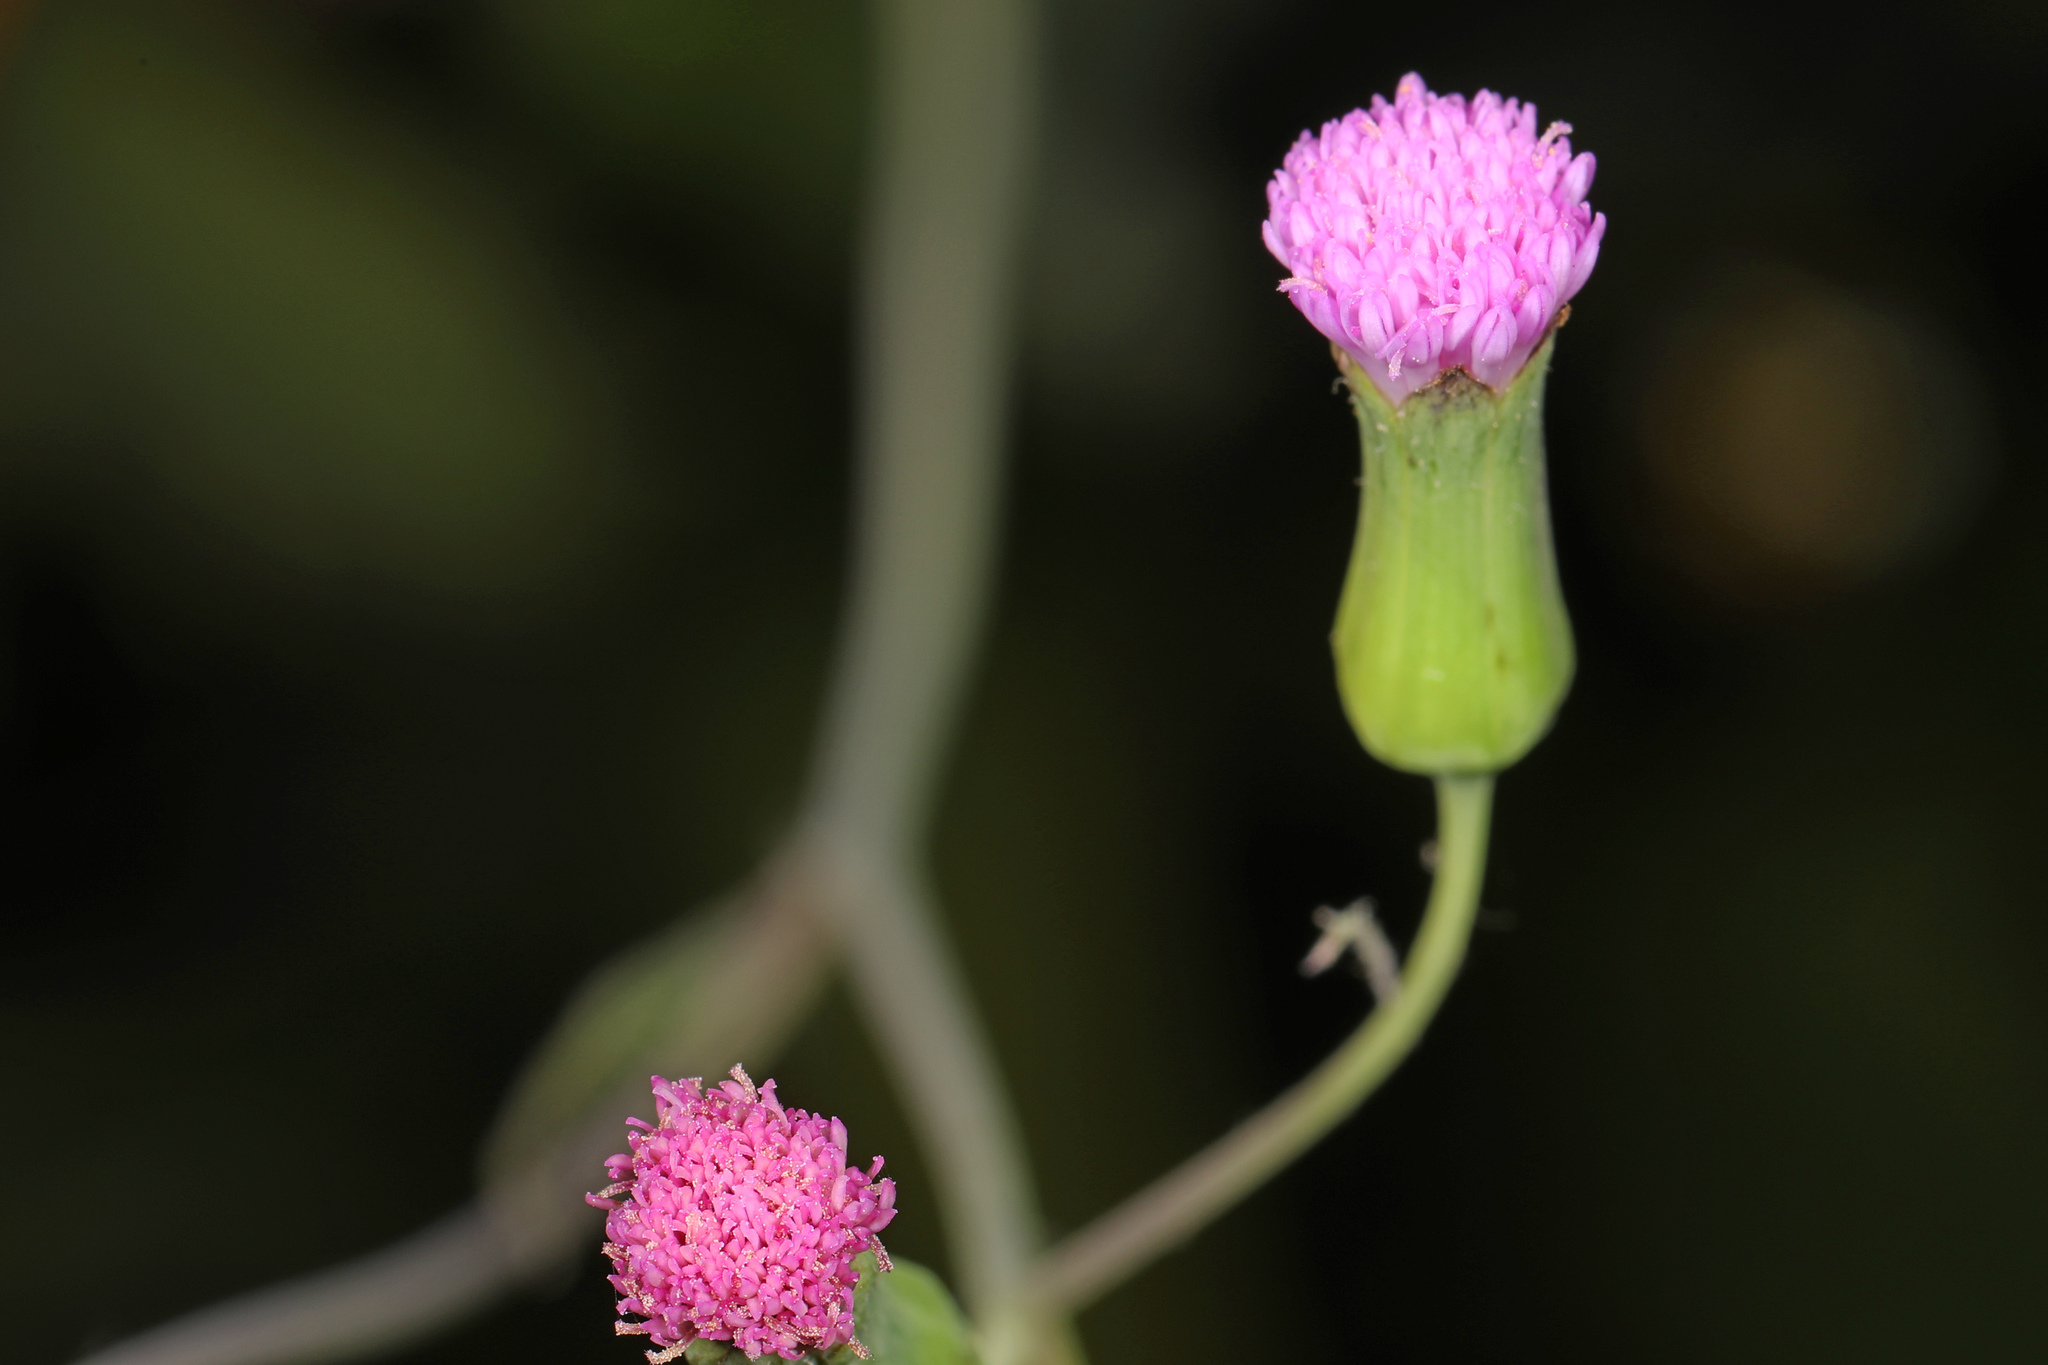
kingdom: Plantae
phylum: Tracheophyta
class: Magnoliopsida
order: Asterales
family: Asteraceae
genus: Emilia
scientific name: Emilia sonchifolia
